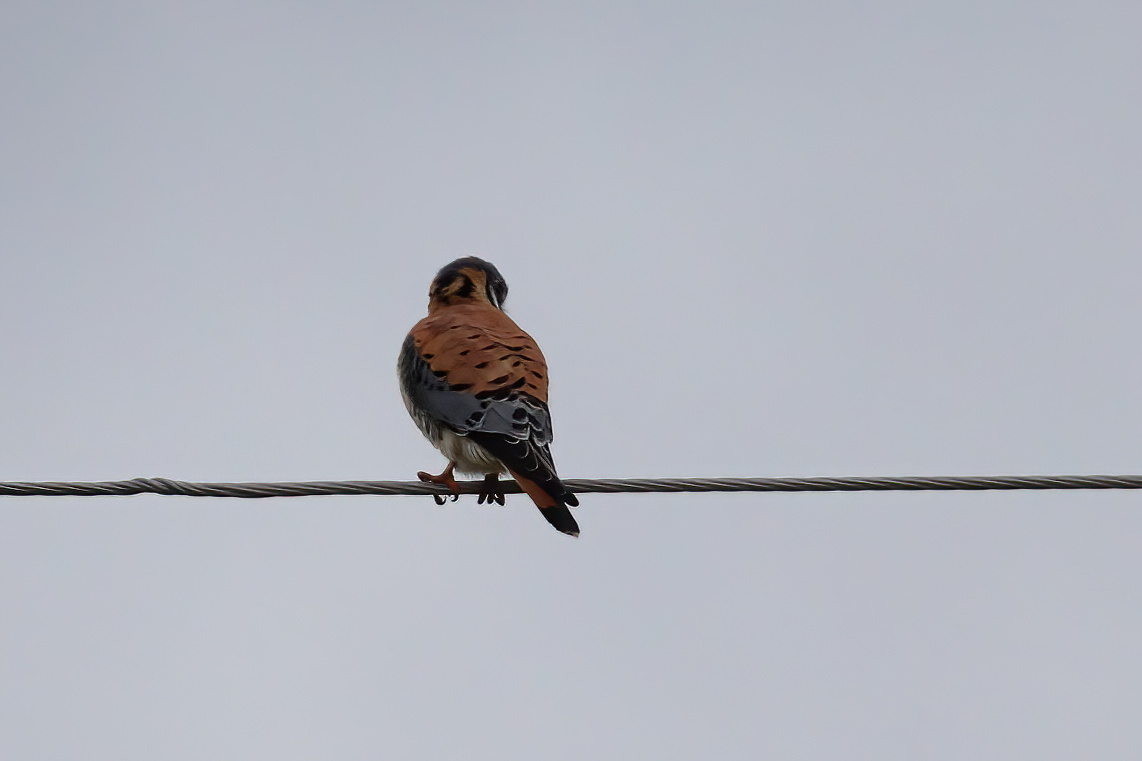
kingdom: Animalia
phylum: Chordata
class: Aves
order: Falconiformes
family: Falconidae
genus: Falco
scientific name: Falco sparverius
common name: American kestrel
